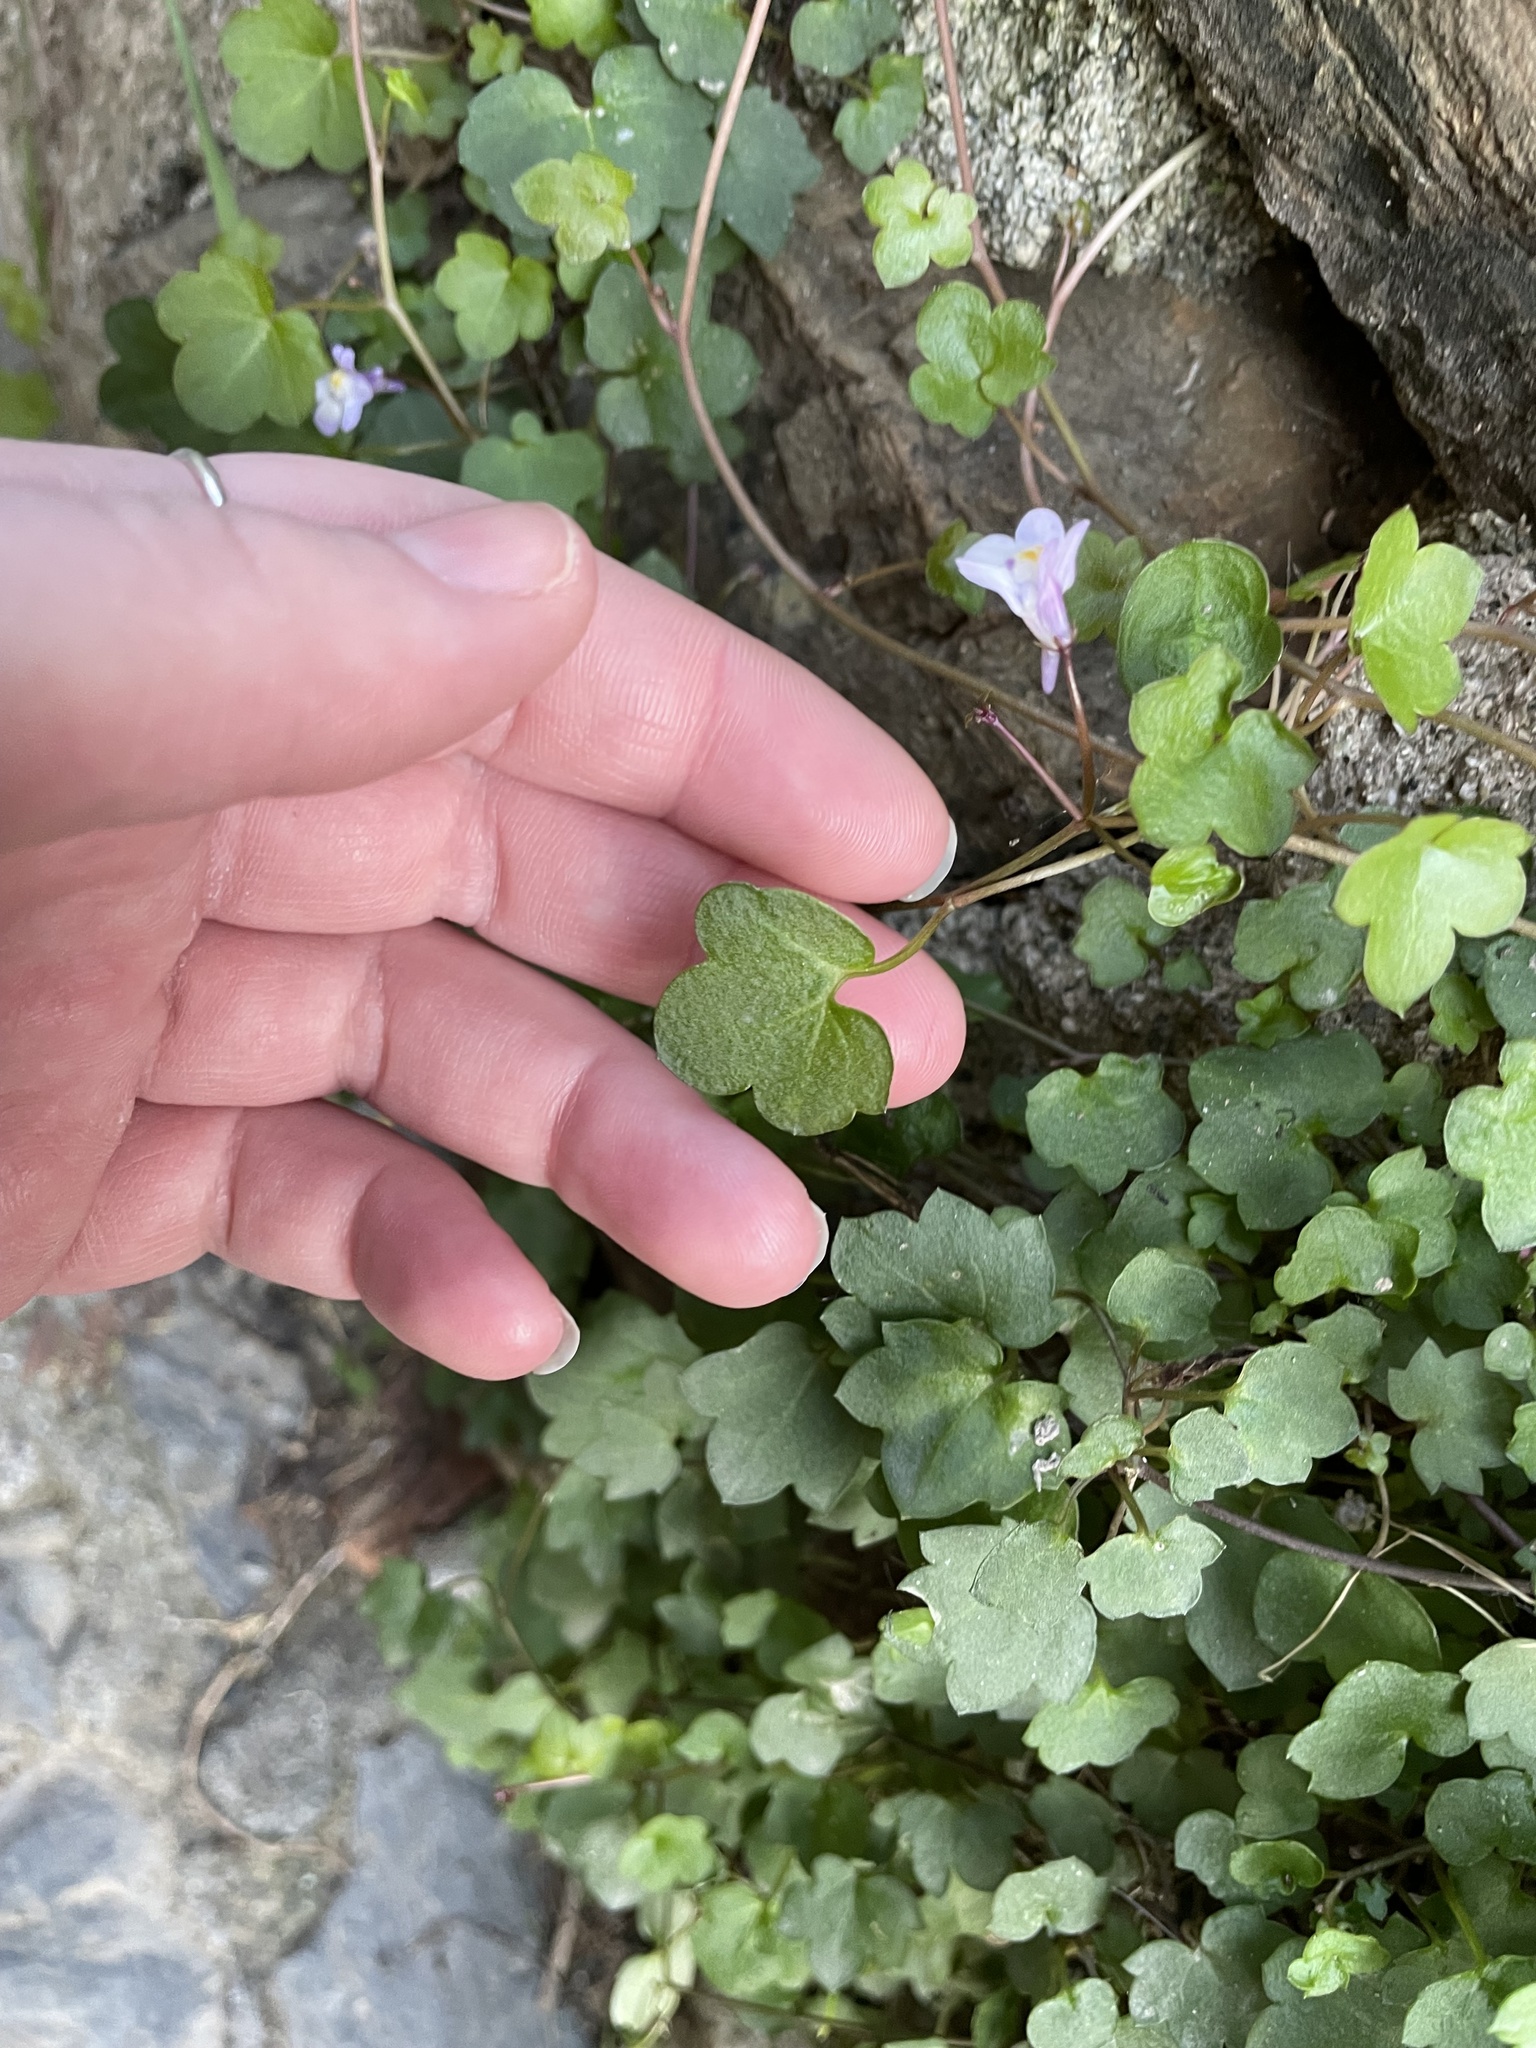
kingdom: Plantae
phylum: Tracheophyta
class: Magnoliopsida
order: Lamiales
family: Plantaginaceae
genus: Cymbalaria
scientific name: Cymbalaria muralis
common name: Ivy-leaved toadflax
